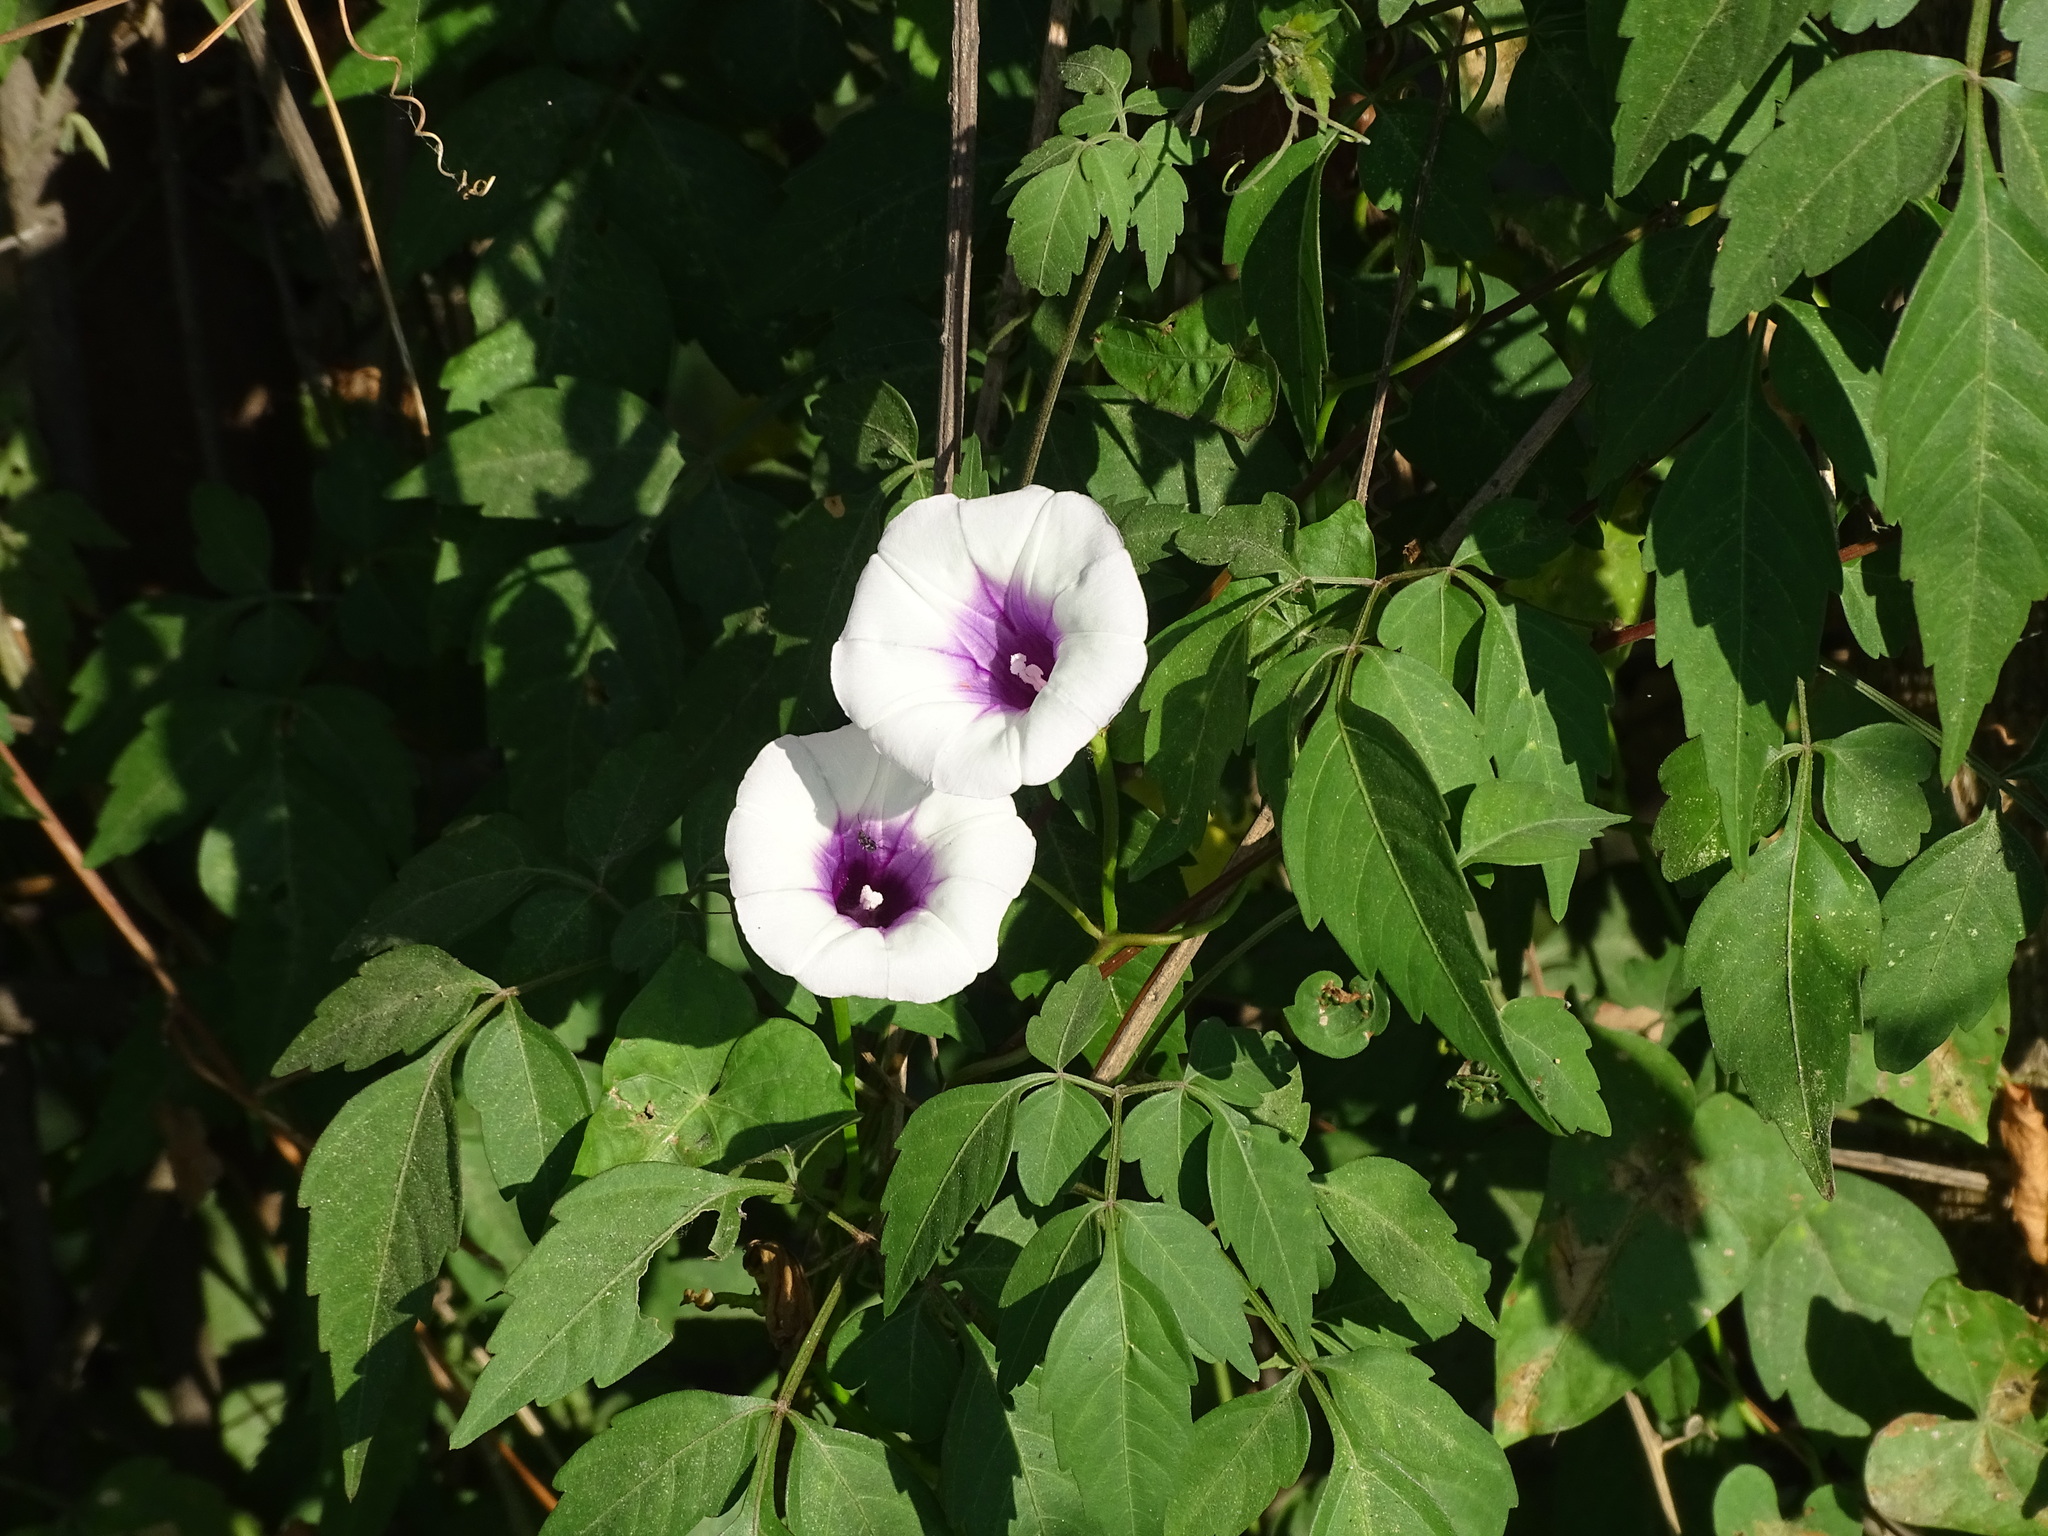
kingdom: Plantae
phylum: Tracheophyta
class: Magnoliopsida
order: Solanales
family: Convolvulaceae
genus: Ipomoea
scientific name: Ipomoea batatas
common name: Sweet-potato
